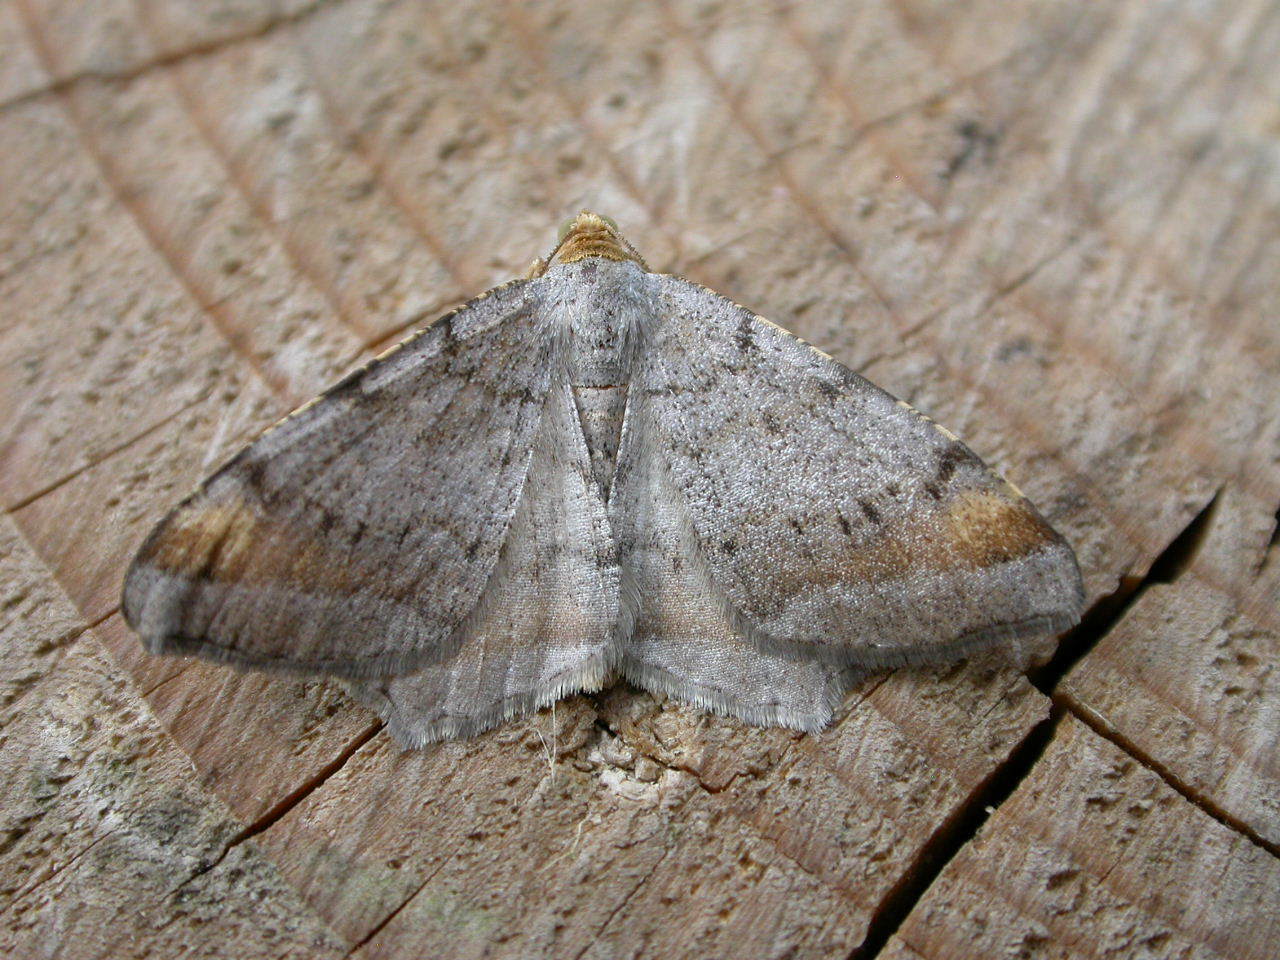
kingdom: Animalia
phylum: Arthropoda
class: Insecta
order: Lepidoptera
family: Geometridae
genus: Macaria
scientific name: Macaria liturata
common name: Tawny-barred angle
